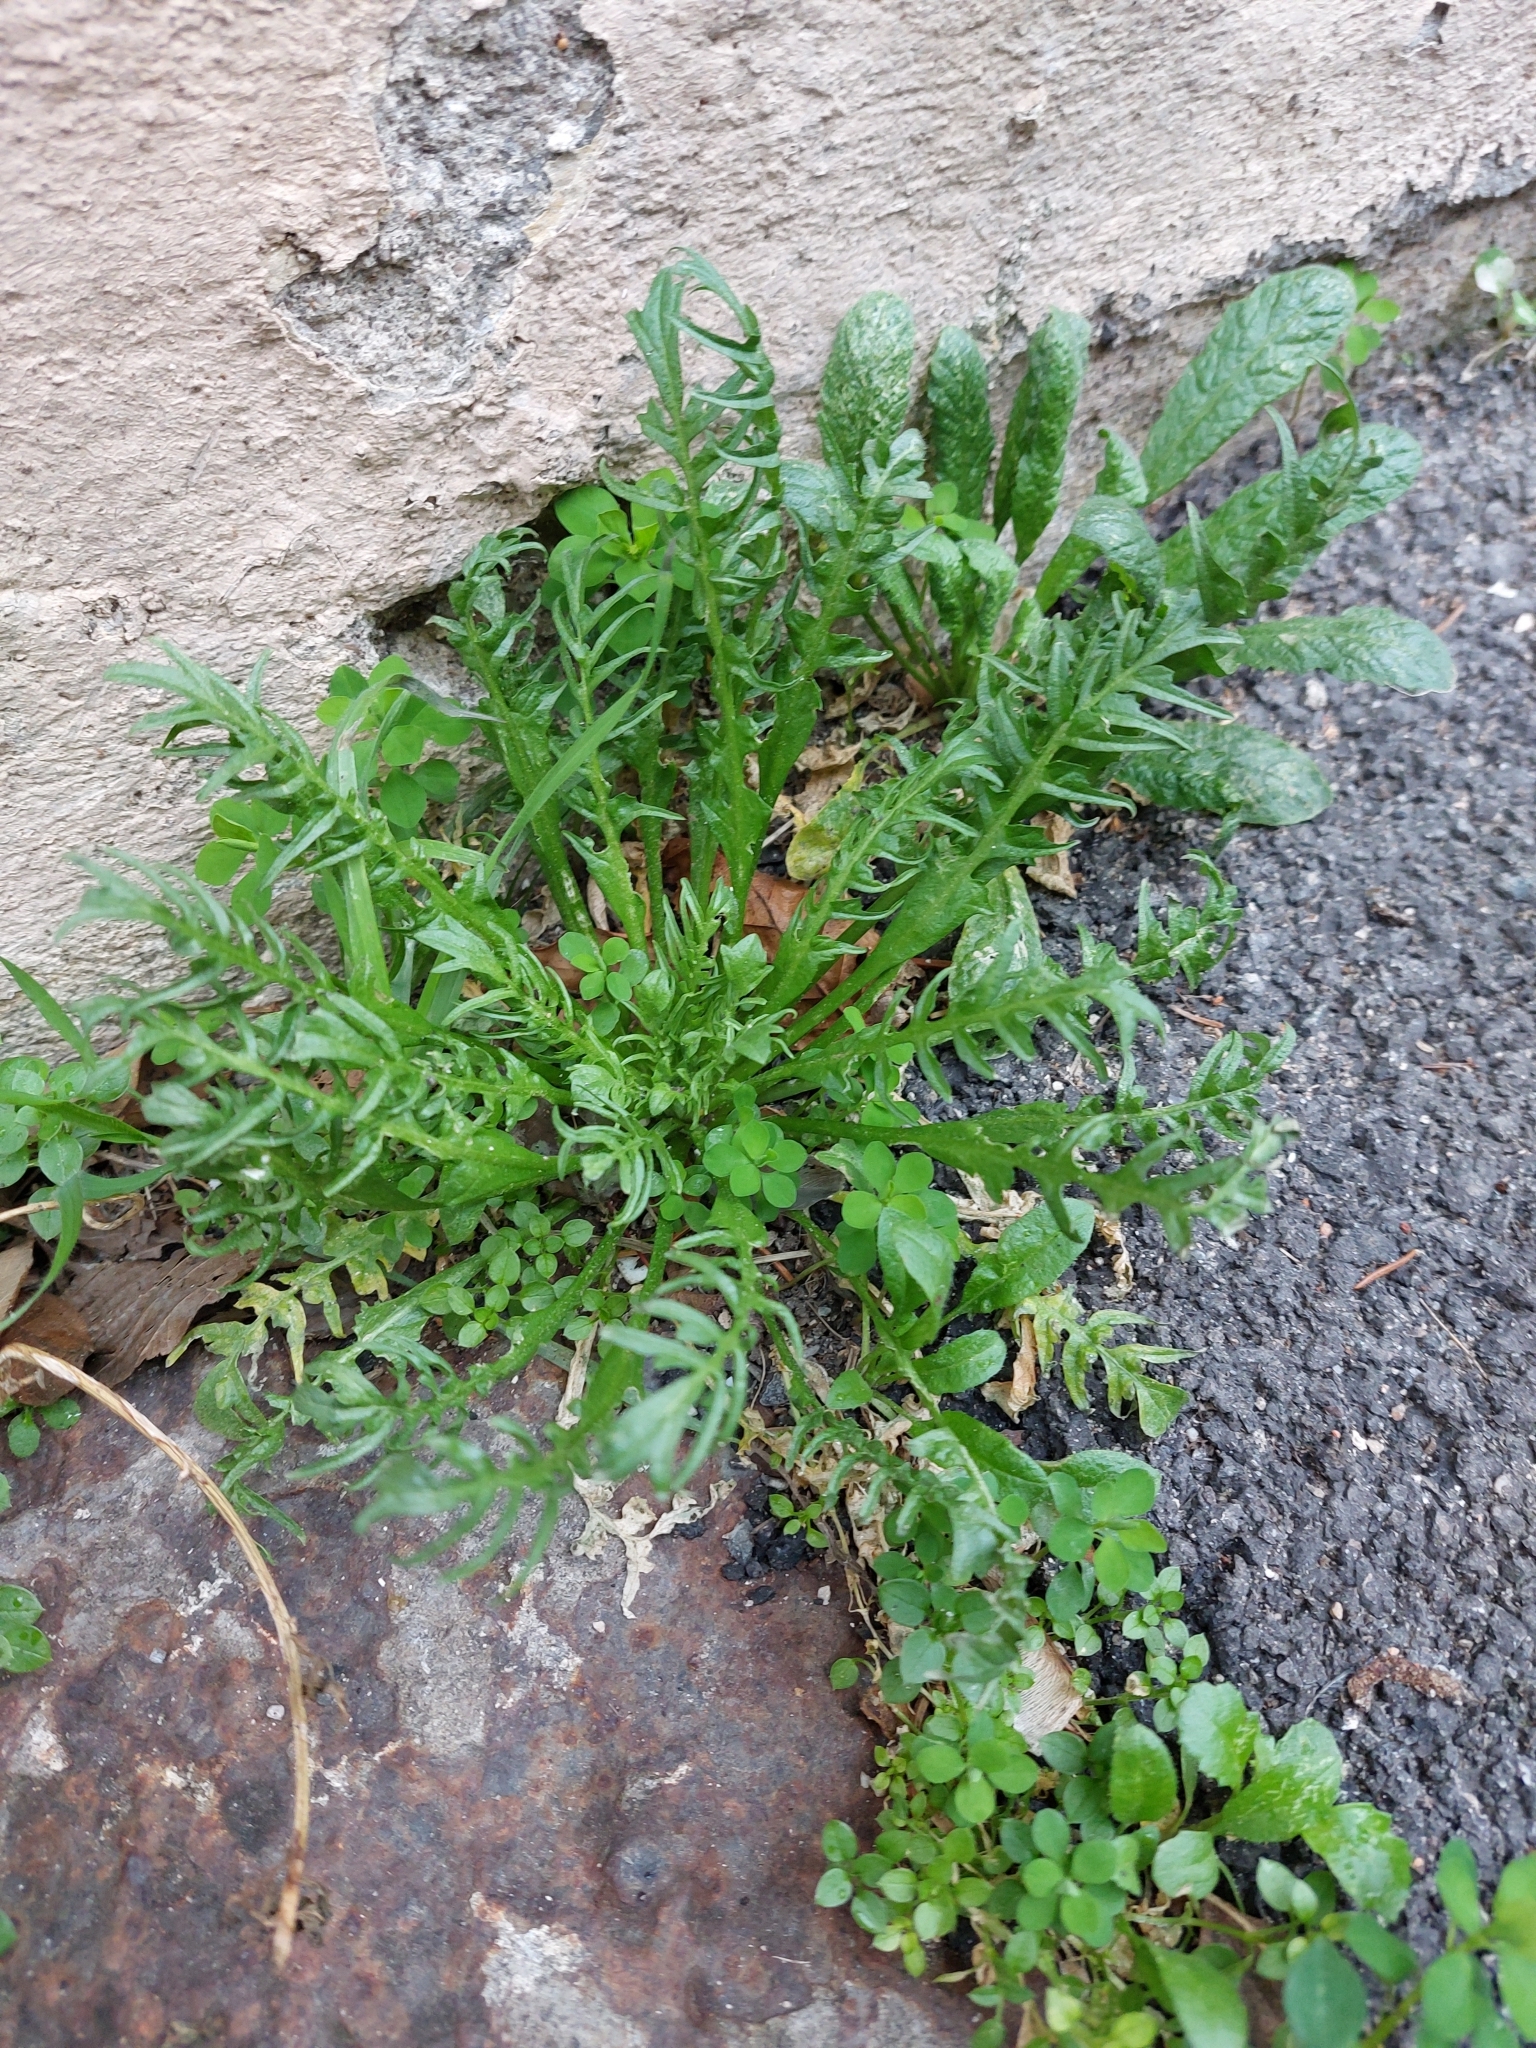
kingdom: Plantae
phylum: Tracheophyta
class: Magnoliopsida
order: Brassicales
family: Brassicaceae
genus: Capsella
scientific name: Capsella bursa-pastoris
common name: Shepherd's purse
